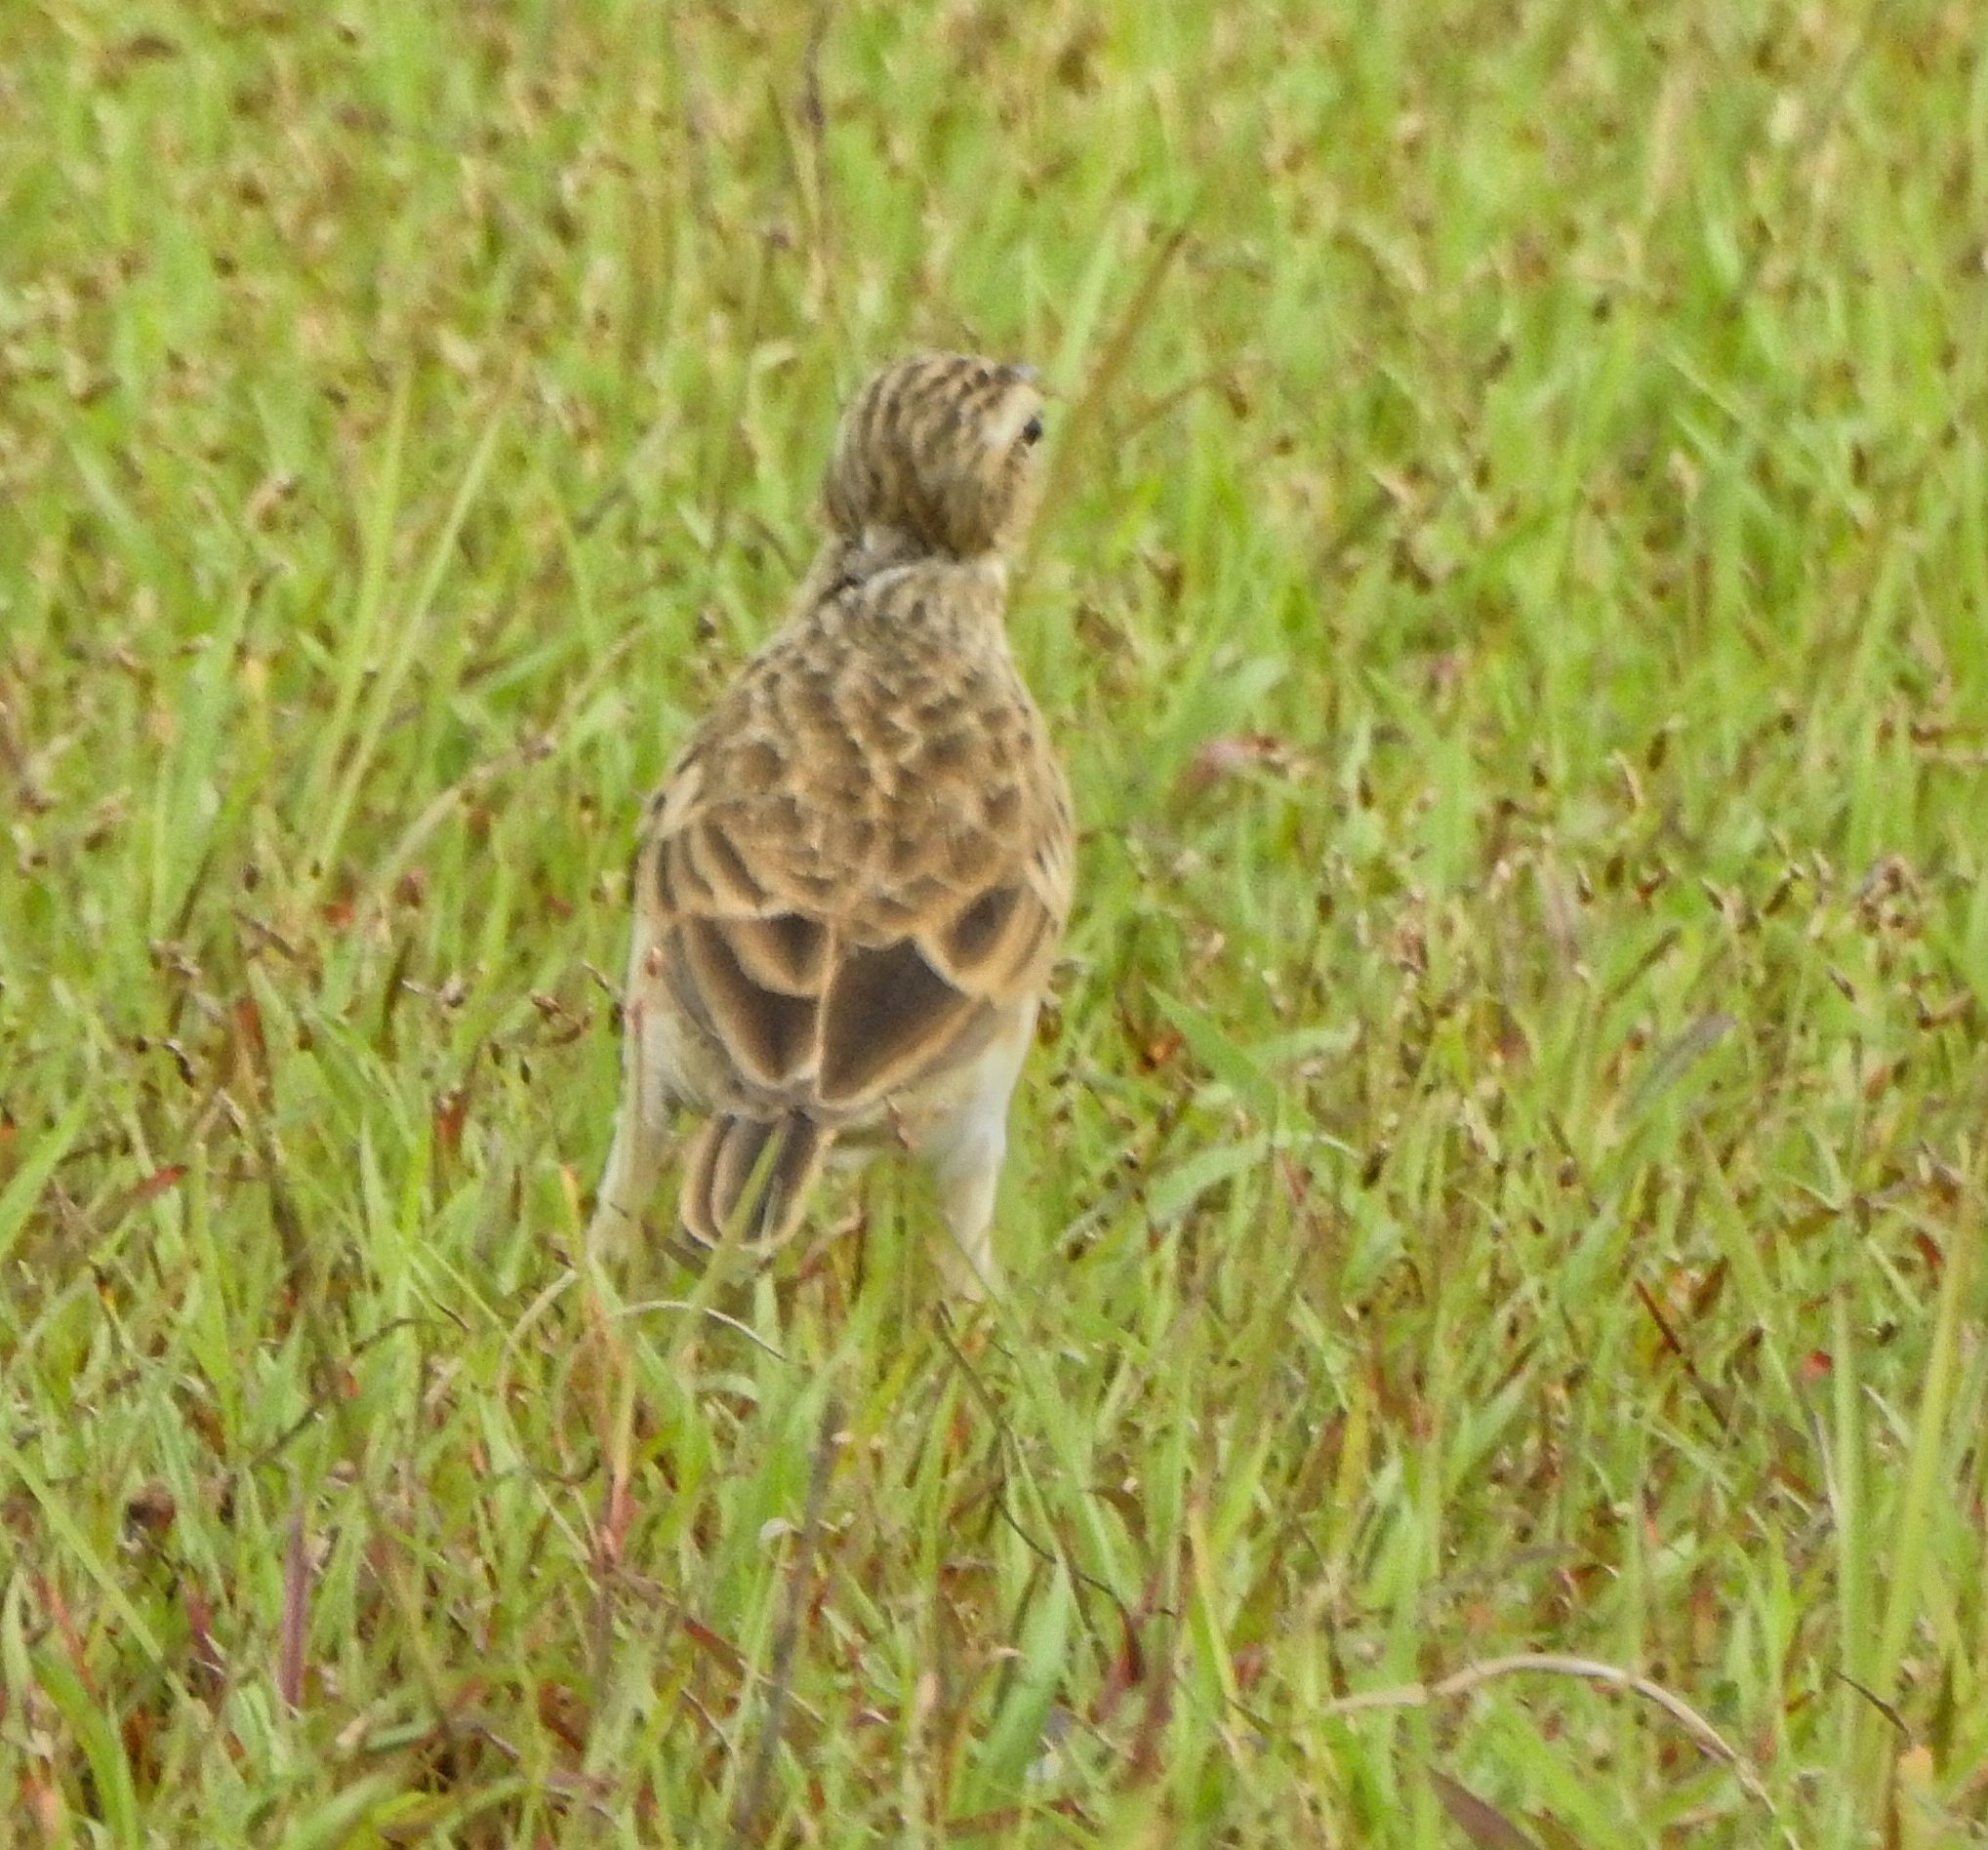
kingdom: Animalia
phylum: Chordata
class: Aves
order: Passeriformes
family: Motacillidae
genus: Anthus
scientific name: Anthus rufulus
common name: Paddyfield pipit
